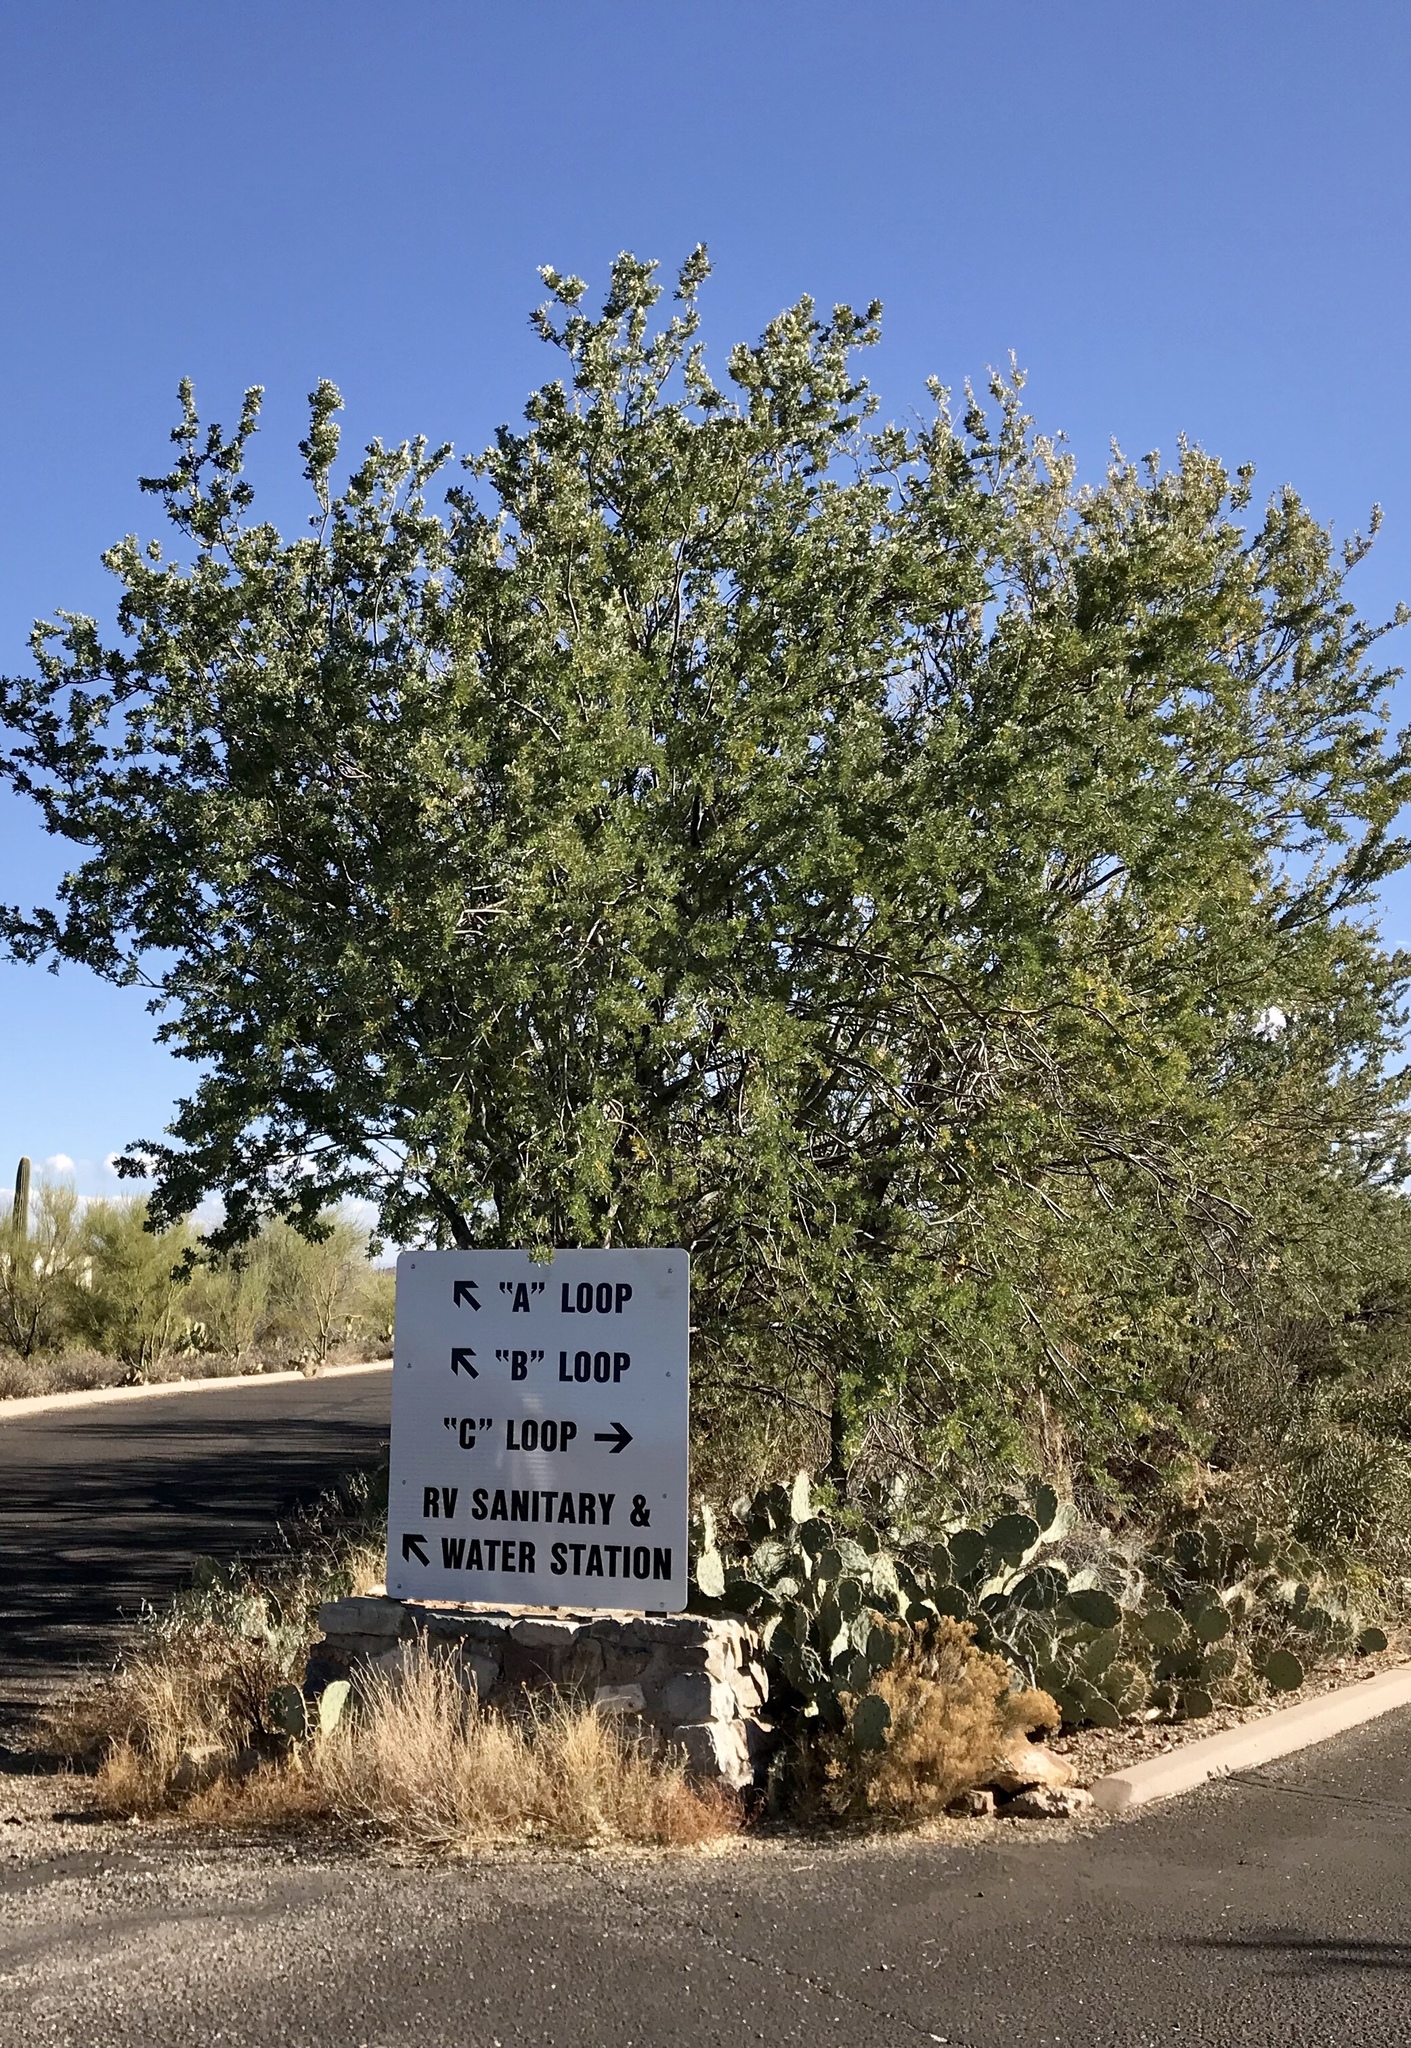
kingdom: Plantae
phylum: Tracheophyta
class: Magnoliopsida
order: Fabales
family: Fabaceae
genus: Olneya
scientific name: Olneya tesota
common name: Desert ironwood
